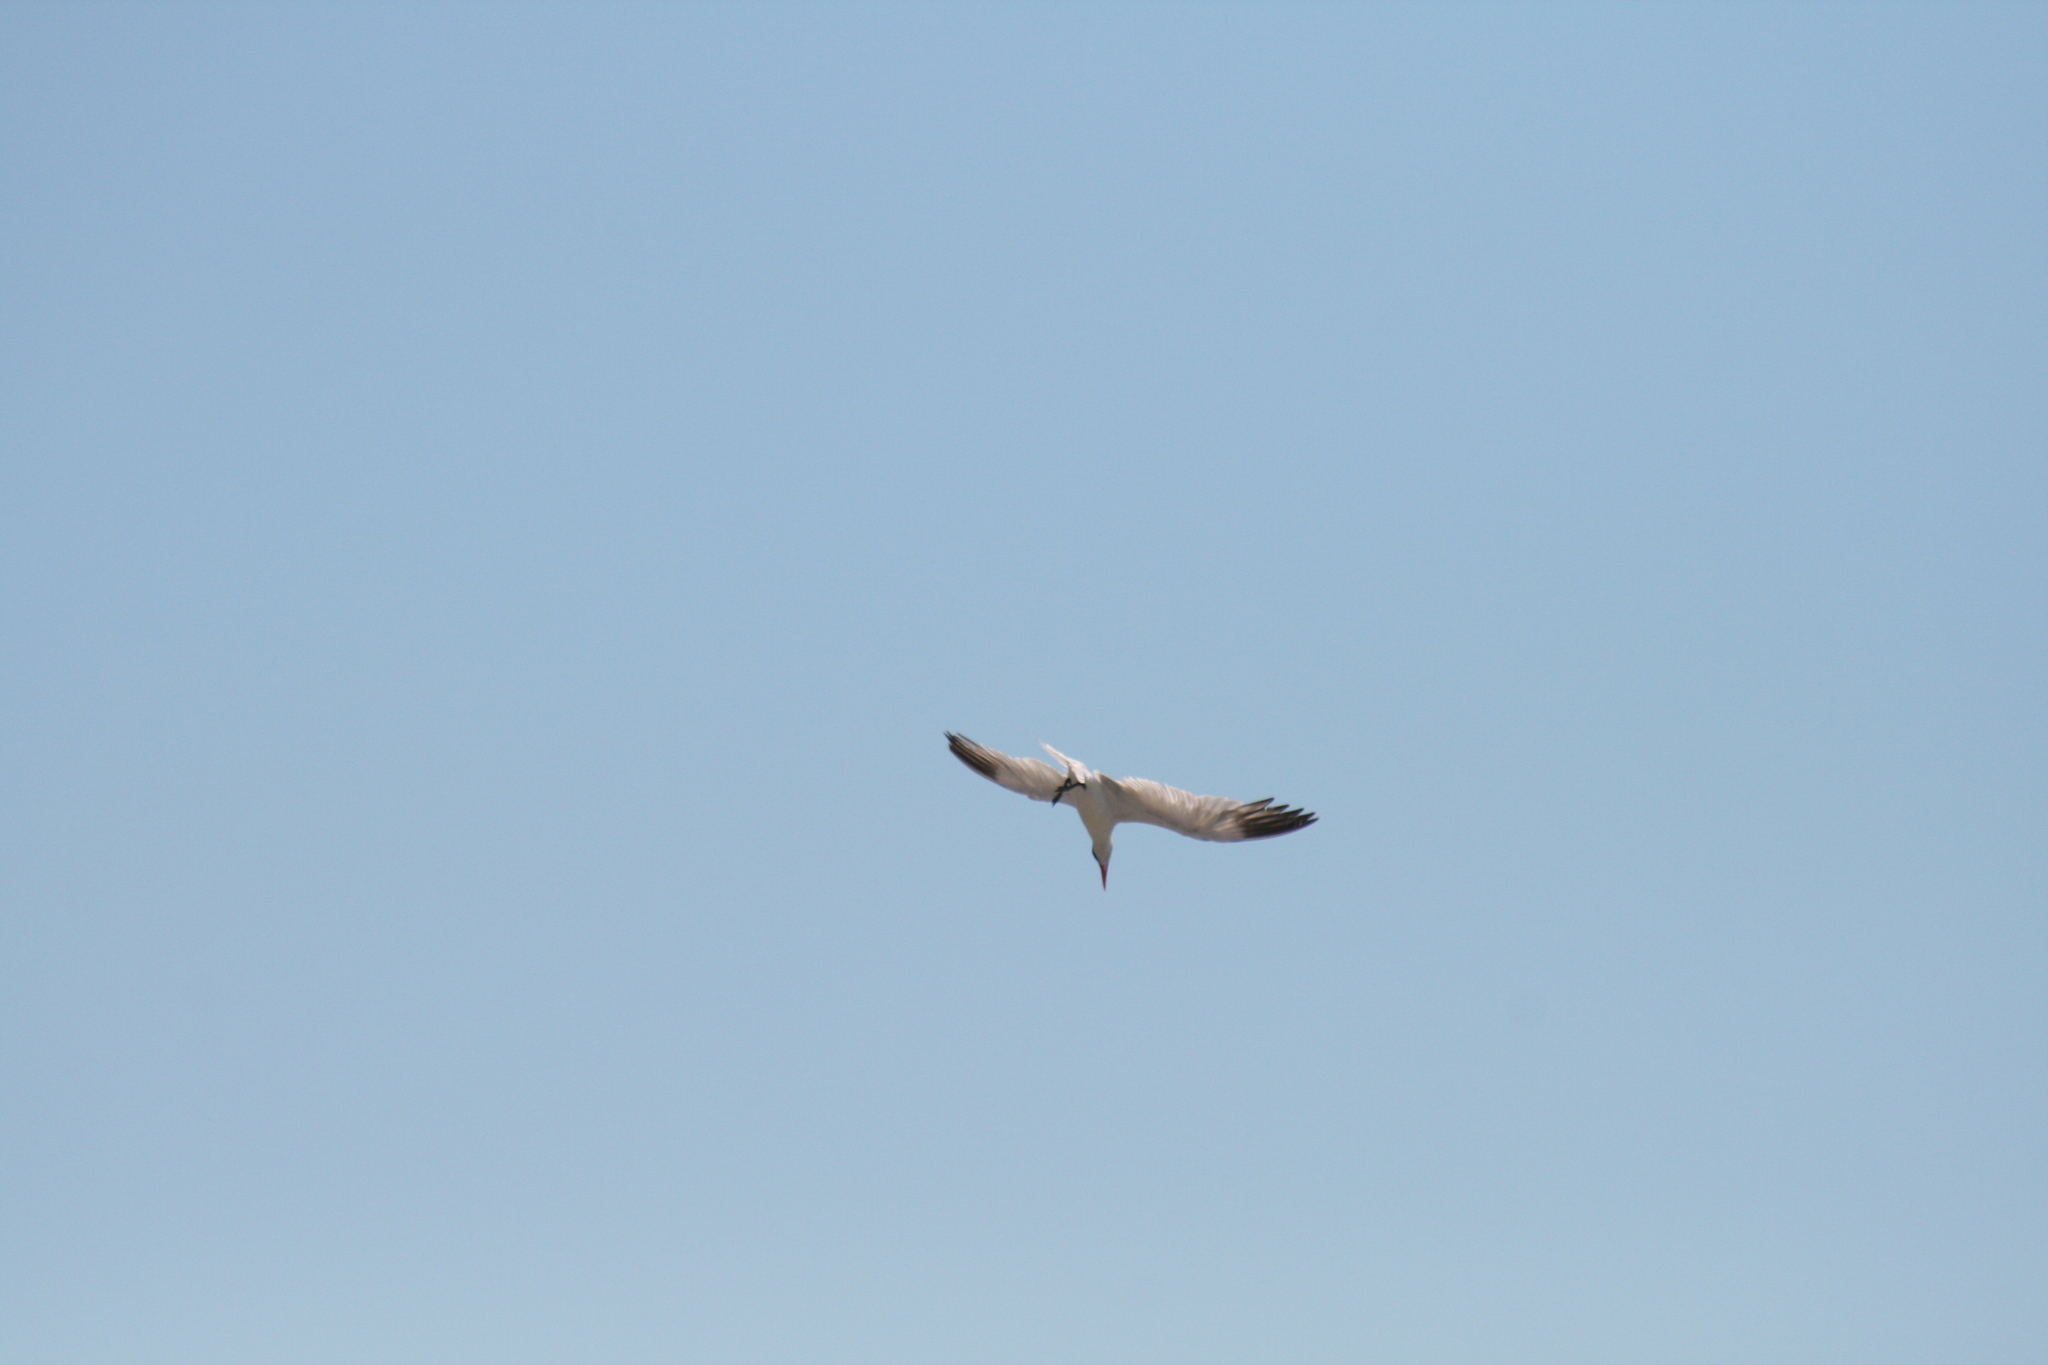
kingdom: Animalia
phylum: Chordata
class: Aves
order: Charadriiformes
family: Laridae
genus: Hydroprogne
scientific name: Hydroprogne caspia
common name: Caspian tern
